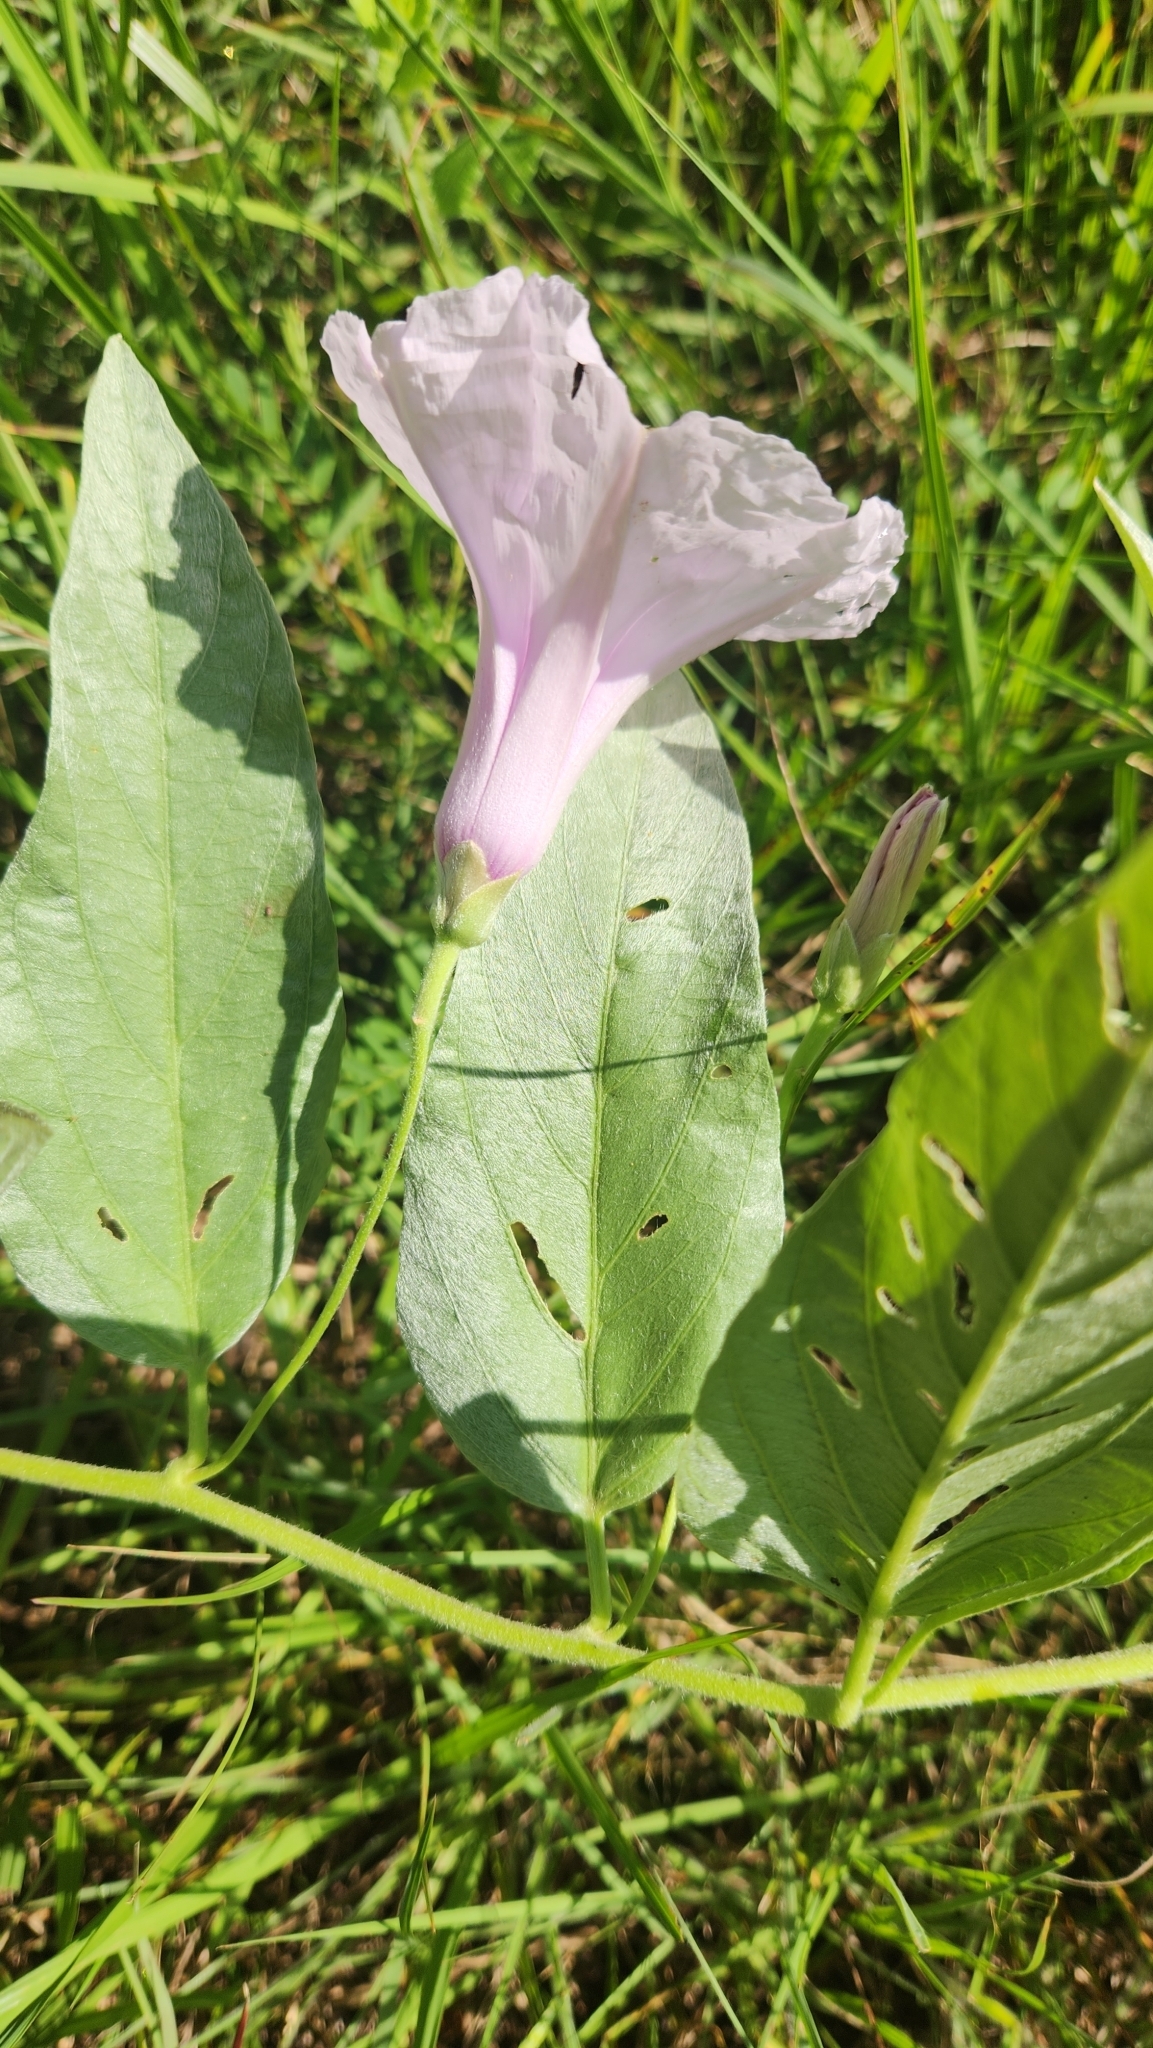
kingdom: Plantae
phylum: Tracheophyta
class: Magnoliopsida
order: Solanales
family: Convolvulaceae
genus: Ipomoea
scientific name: Ipomoea nitida
